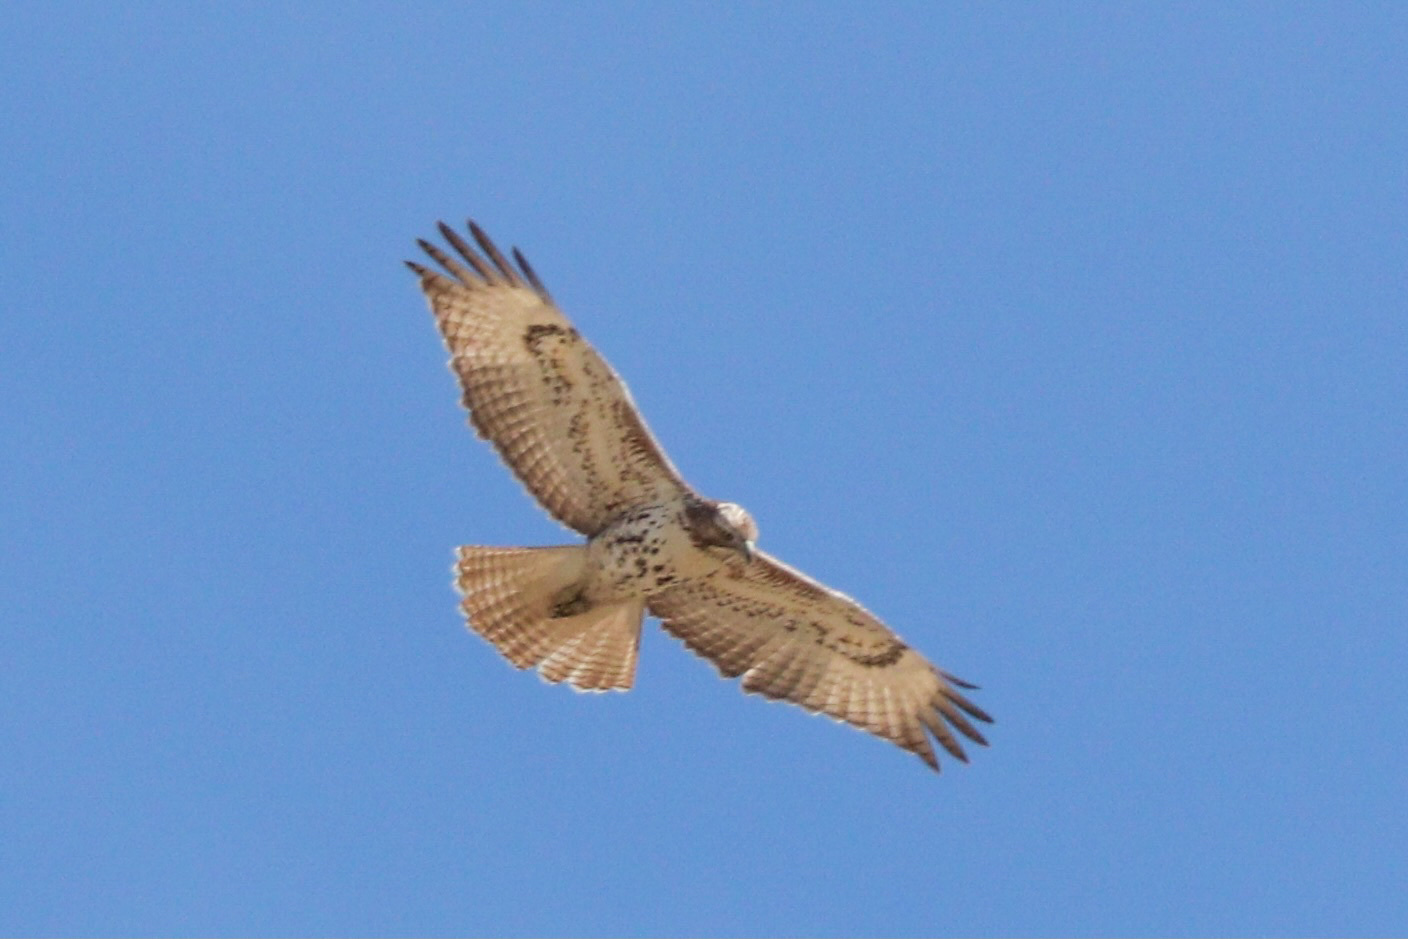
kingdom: Animalia
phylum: Chordata
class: Aves
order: Accipitriformes
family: Accipitridae
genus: Buteo
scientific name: Buteo jamaicensis
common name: Red-tailed hawk
